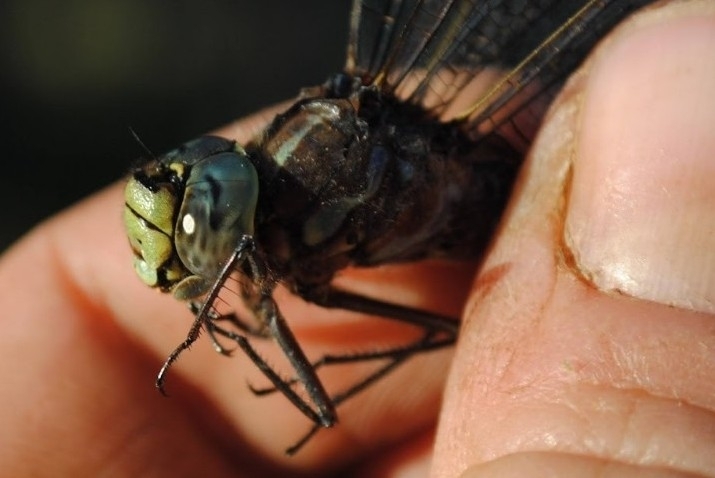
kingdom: Animalia
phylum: Arthropoda
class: Insecta
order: Odonata
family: Aeshnidae
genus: Aeshna
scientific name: Aeshna eremita
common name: Lake darner
